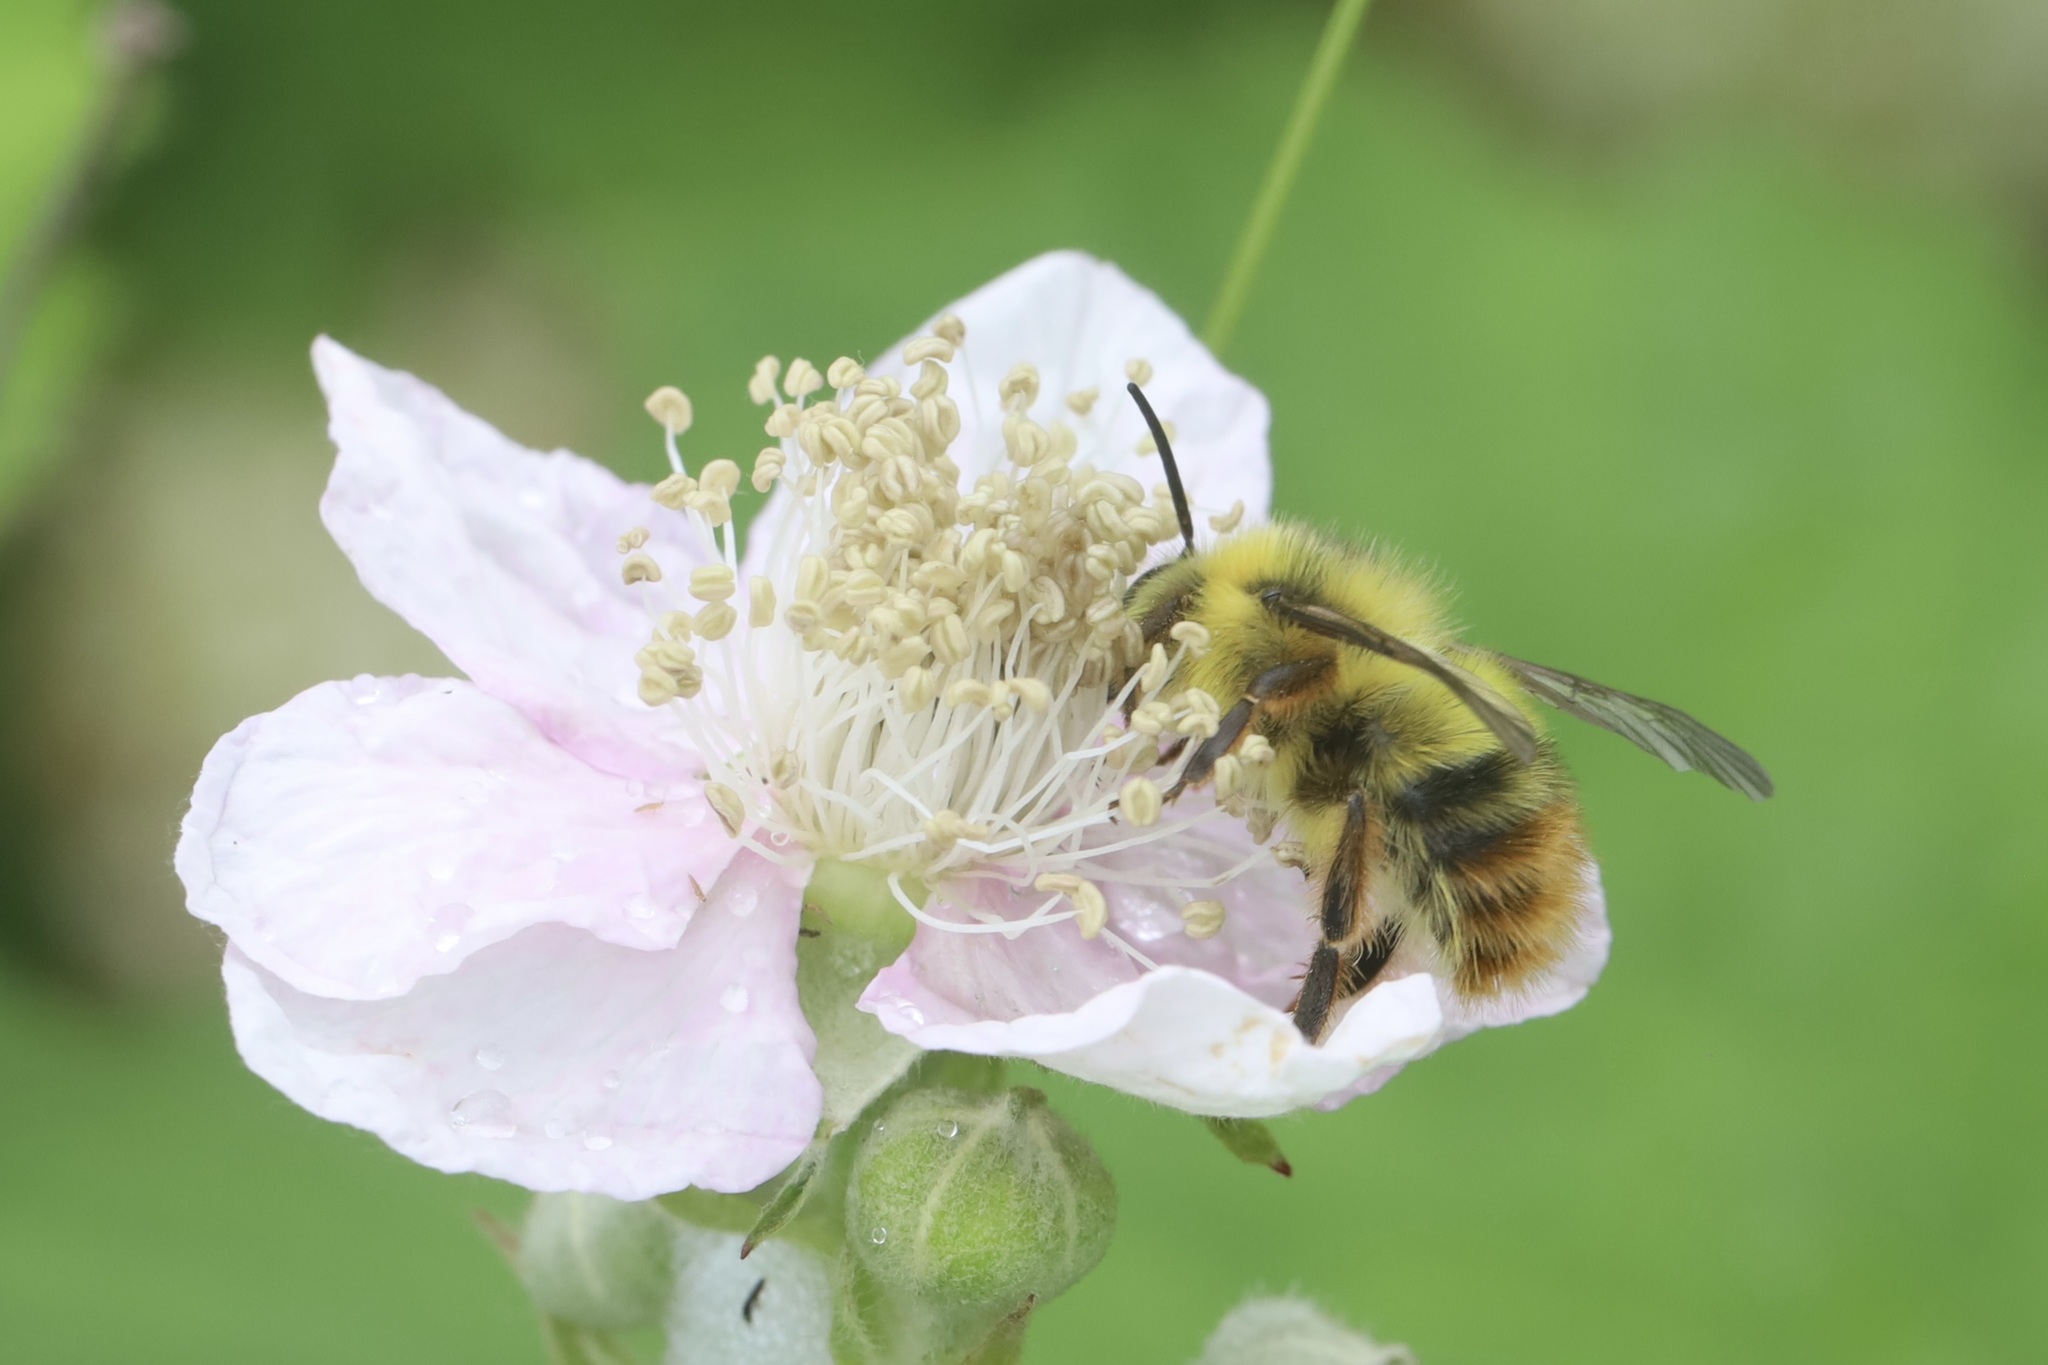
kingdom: Animalia
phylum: Arthropoda
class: Insecta
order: Hymenoptera
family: Apidae
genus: Bombus
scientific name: Bombus mixtus
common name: Fuzzy-horned bumble bee
